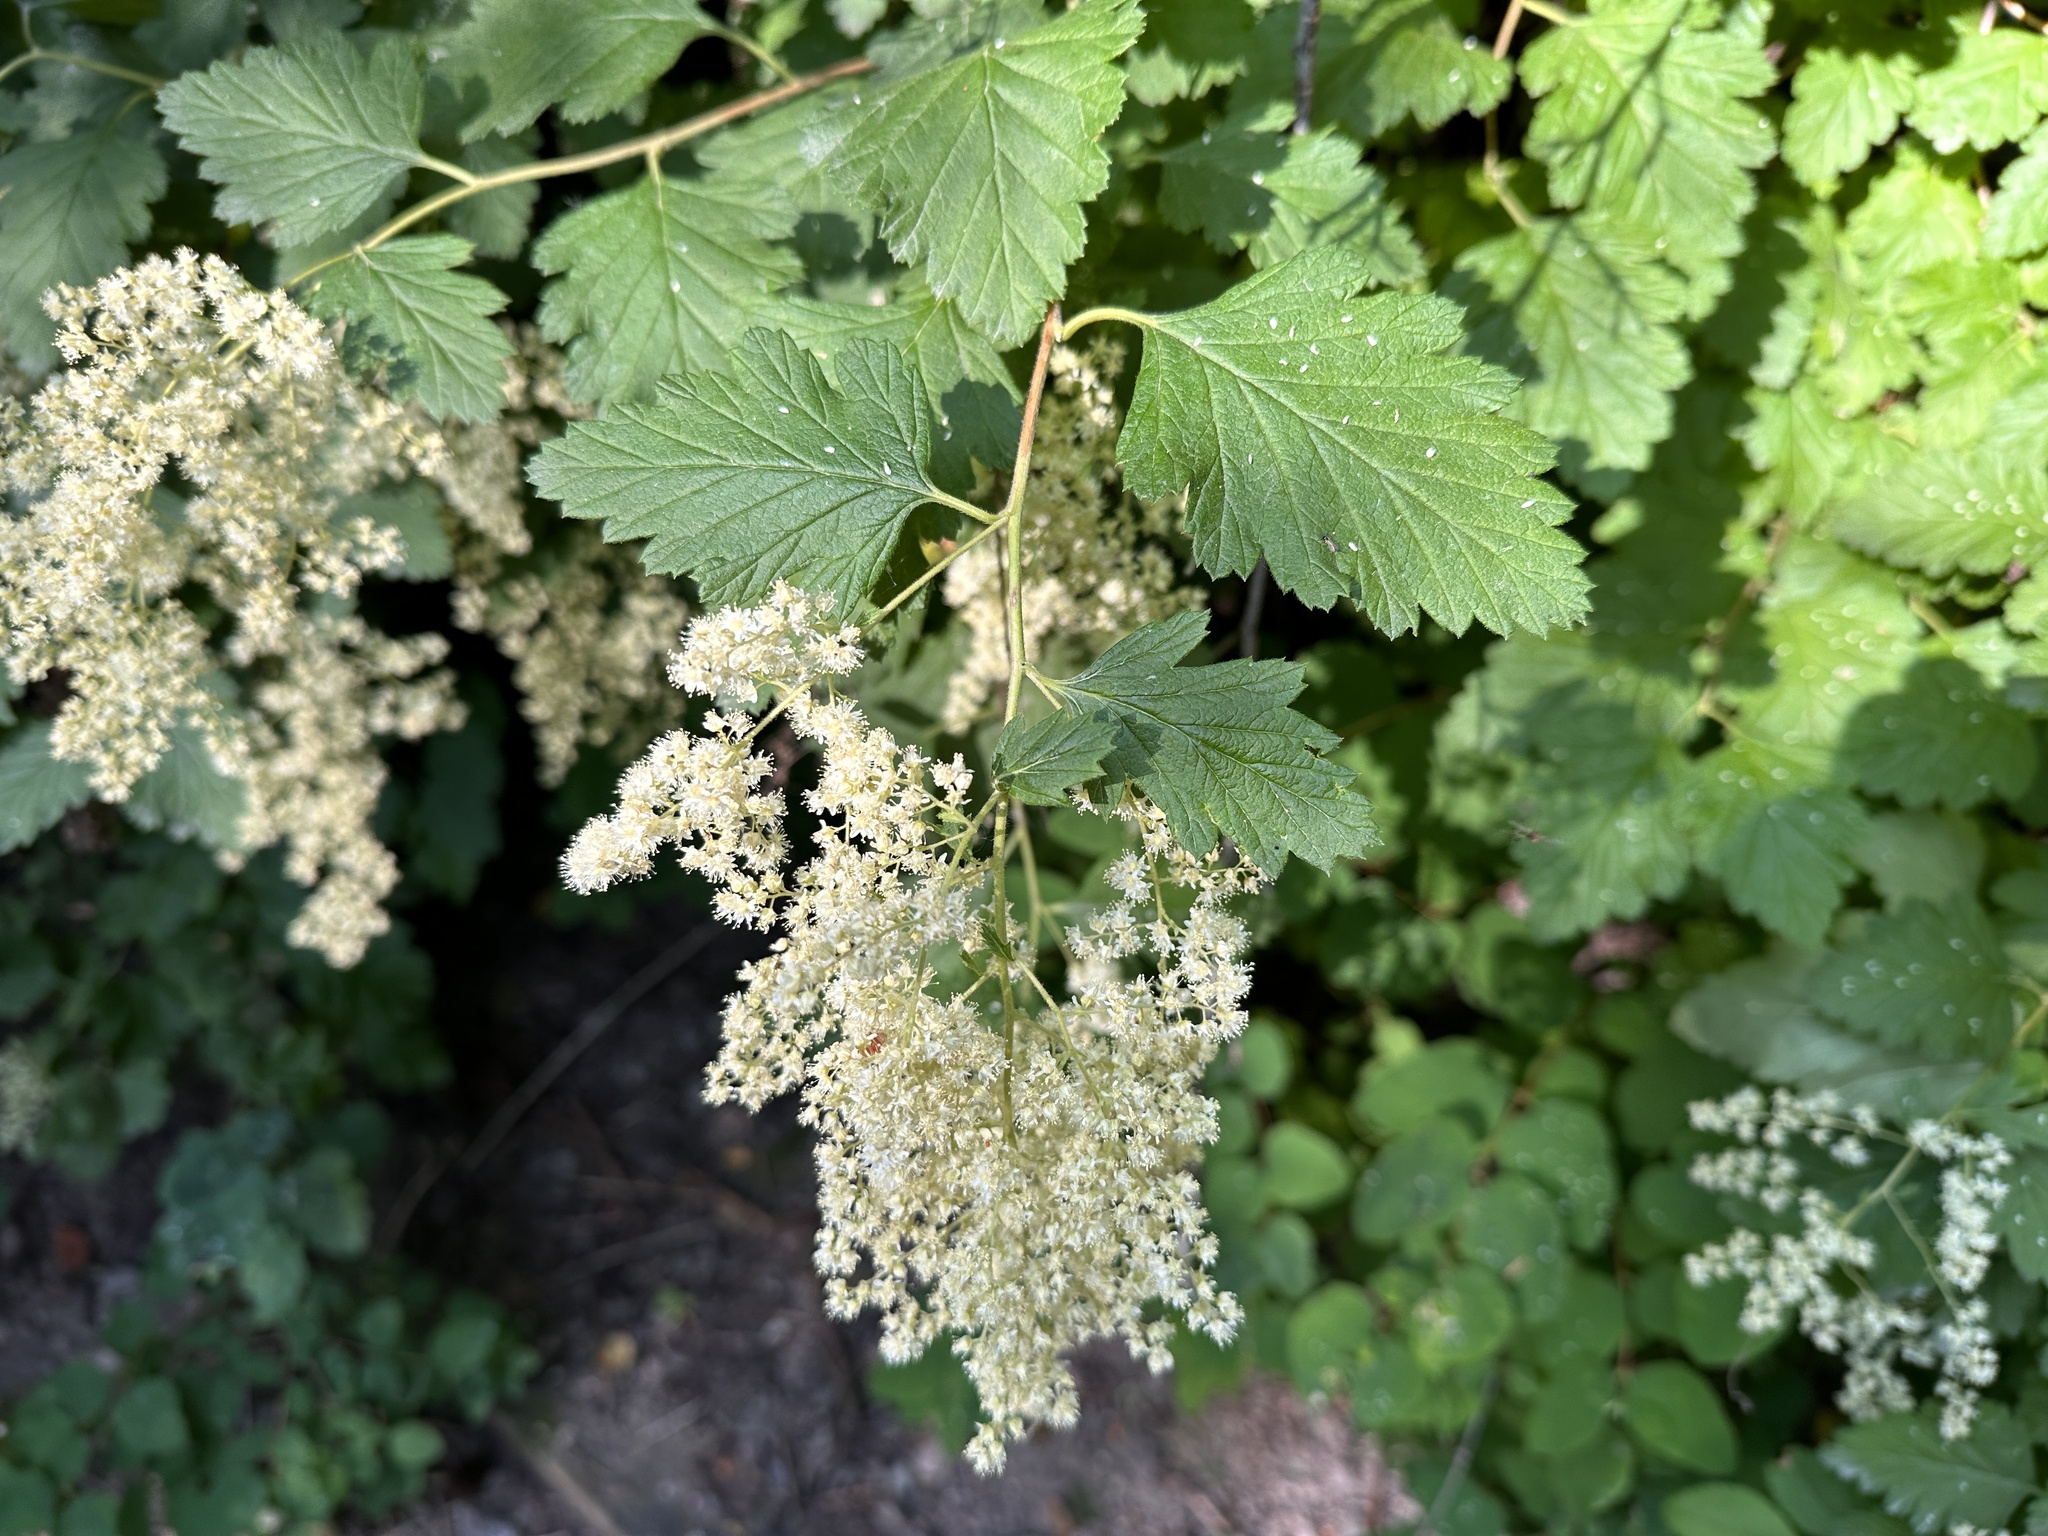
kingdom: Plantae
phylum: Tracheophyta
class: Magnoliopsida
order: Rosales
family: Rosaceae
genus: Holodiscus
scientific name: Holodiscus discolor
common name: Oceanspray
